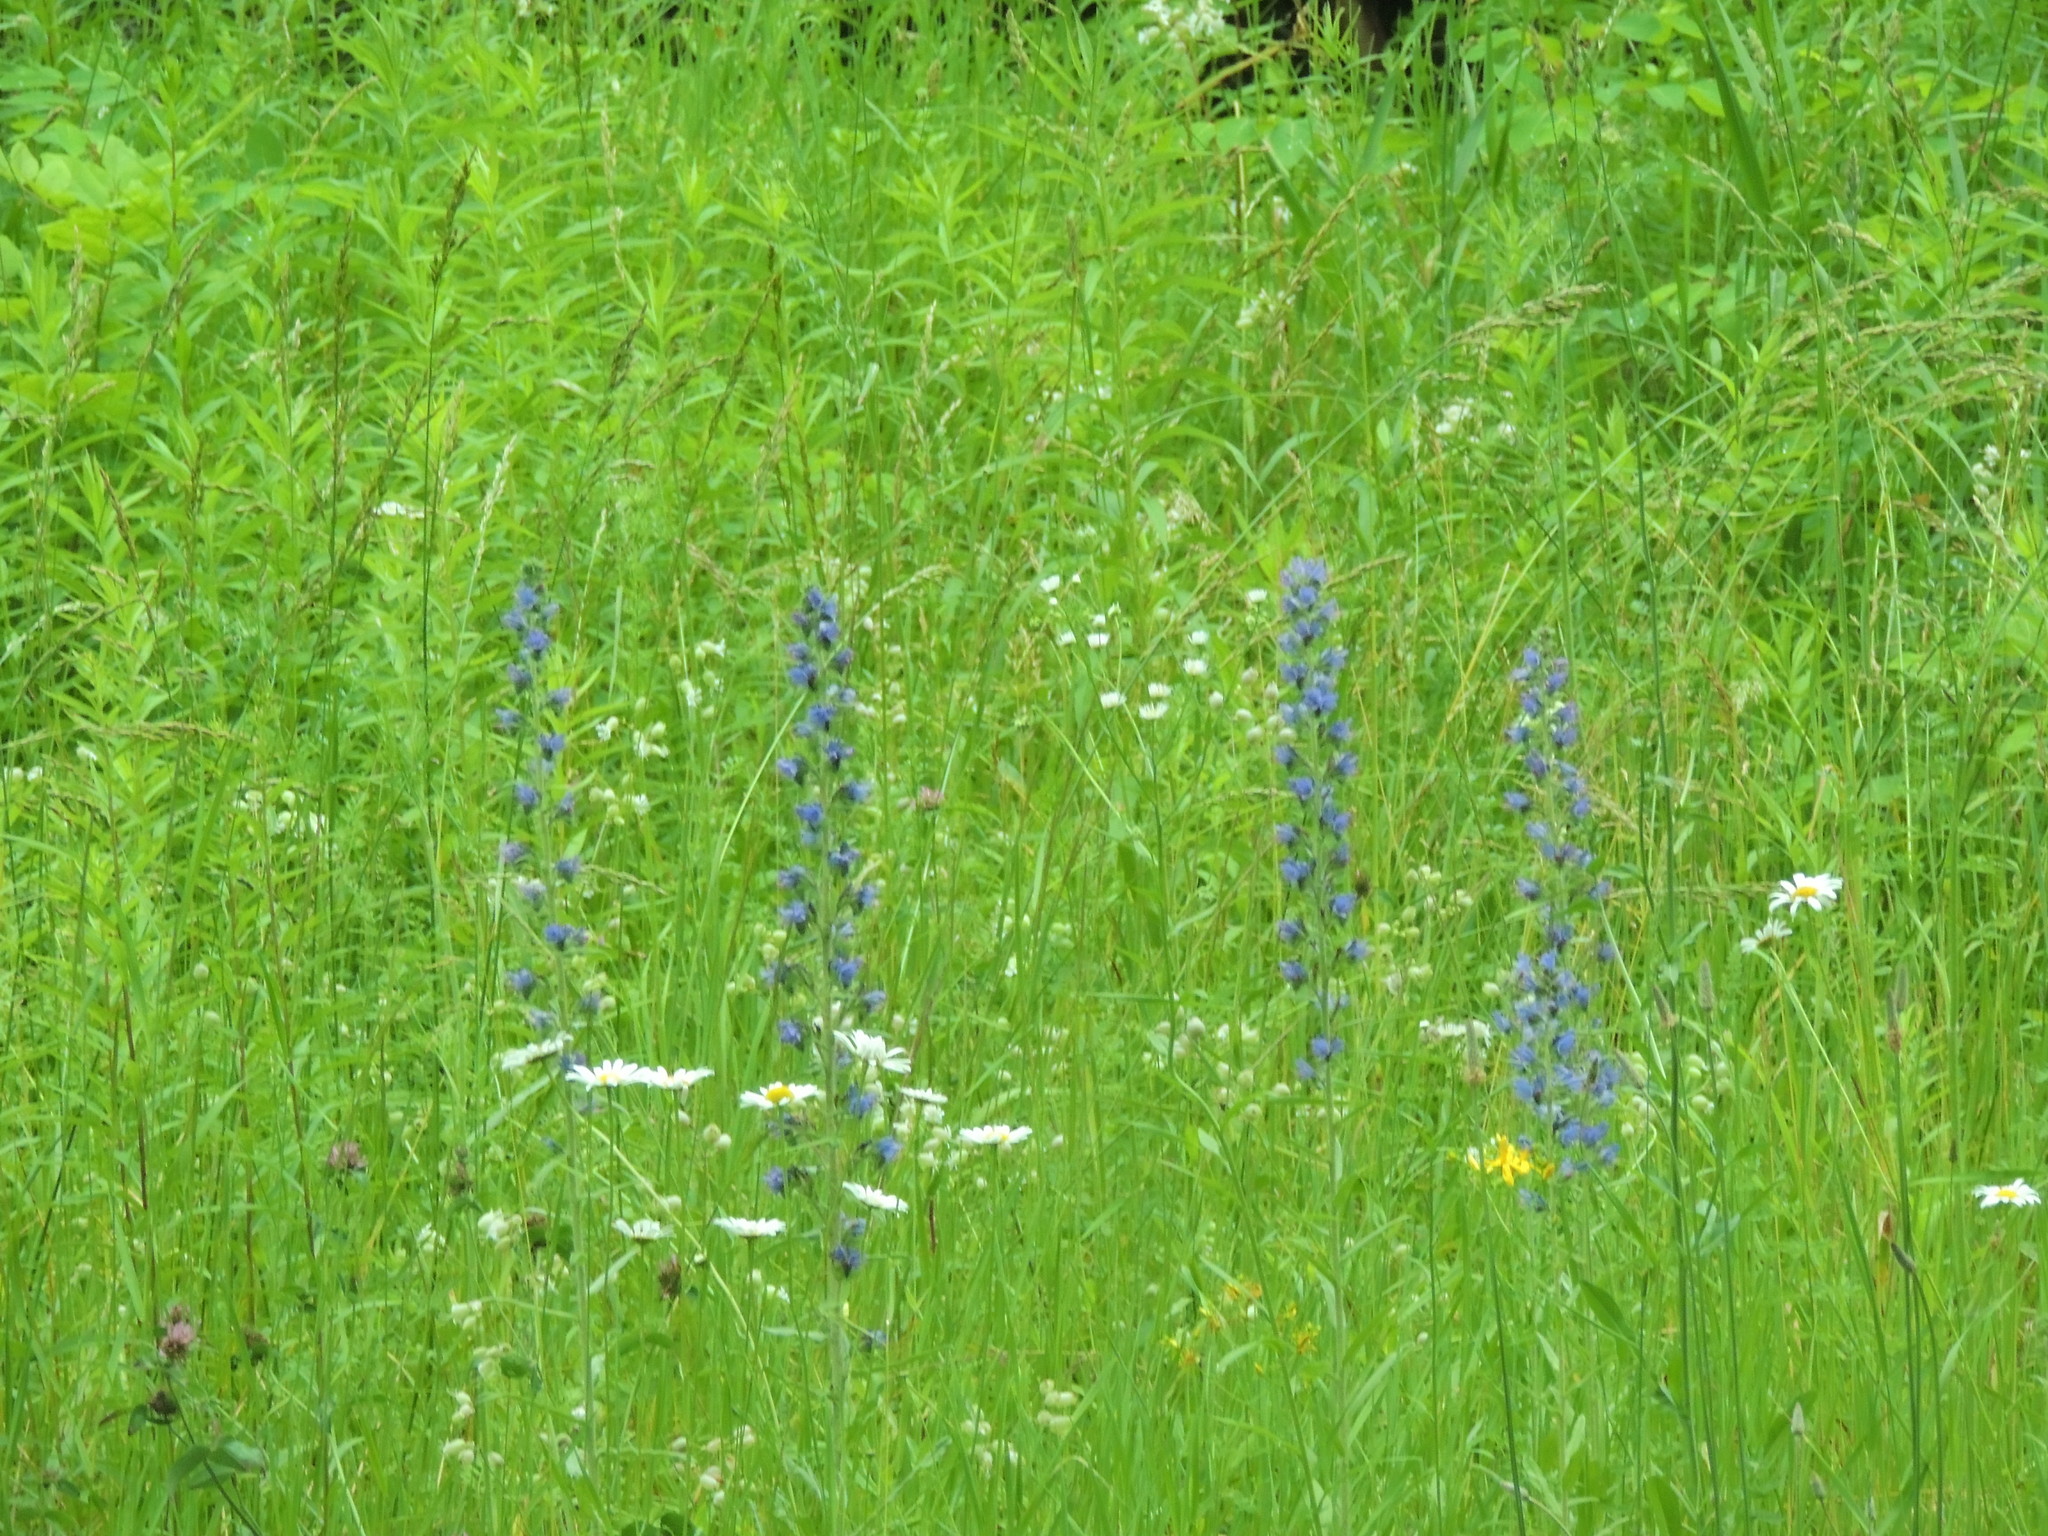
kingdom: Plantae
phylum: Tracheophyta
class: Magnoliopsida
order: Boraginales
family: Boraginaceae
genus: Echium
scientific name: Echium vulgare
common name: Common viper's bugloss
